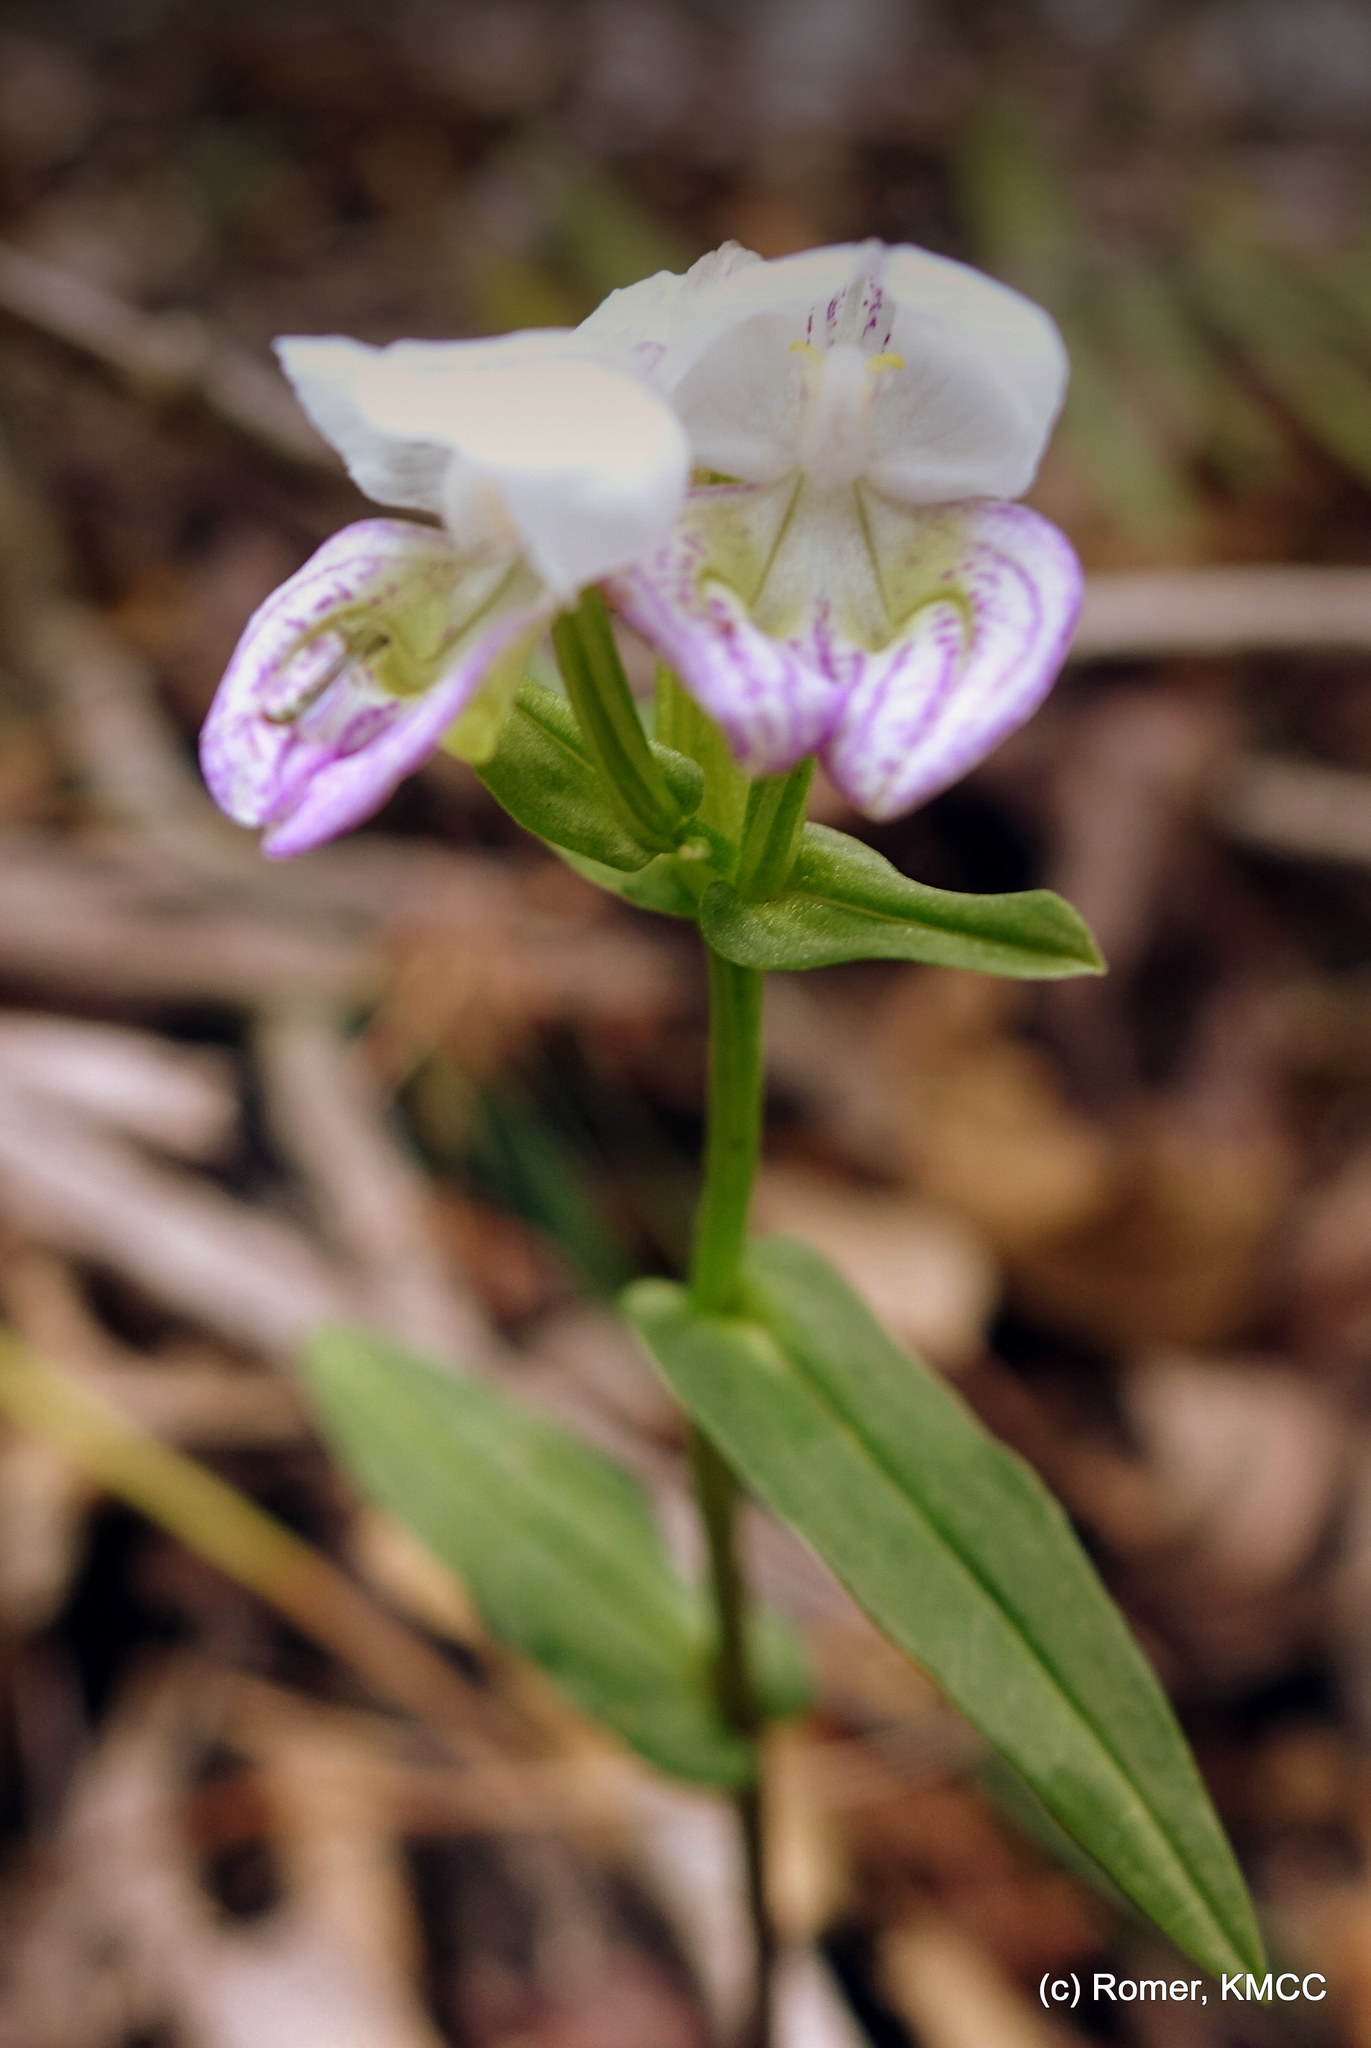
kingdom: Plantae
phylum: Tracheophyta
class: Liliopsida
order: Asparagales
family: Orchidaceae
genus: Disperis
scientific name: Disperis hildebrandtii
